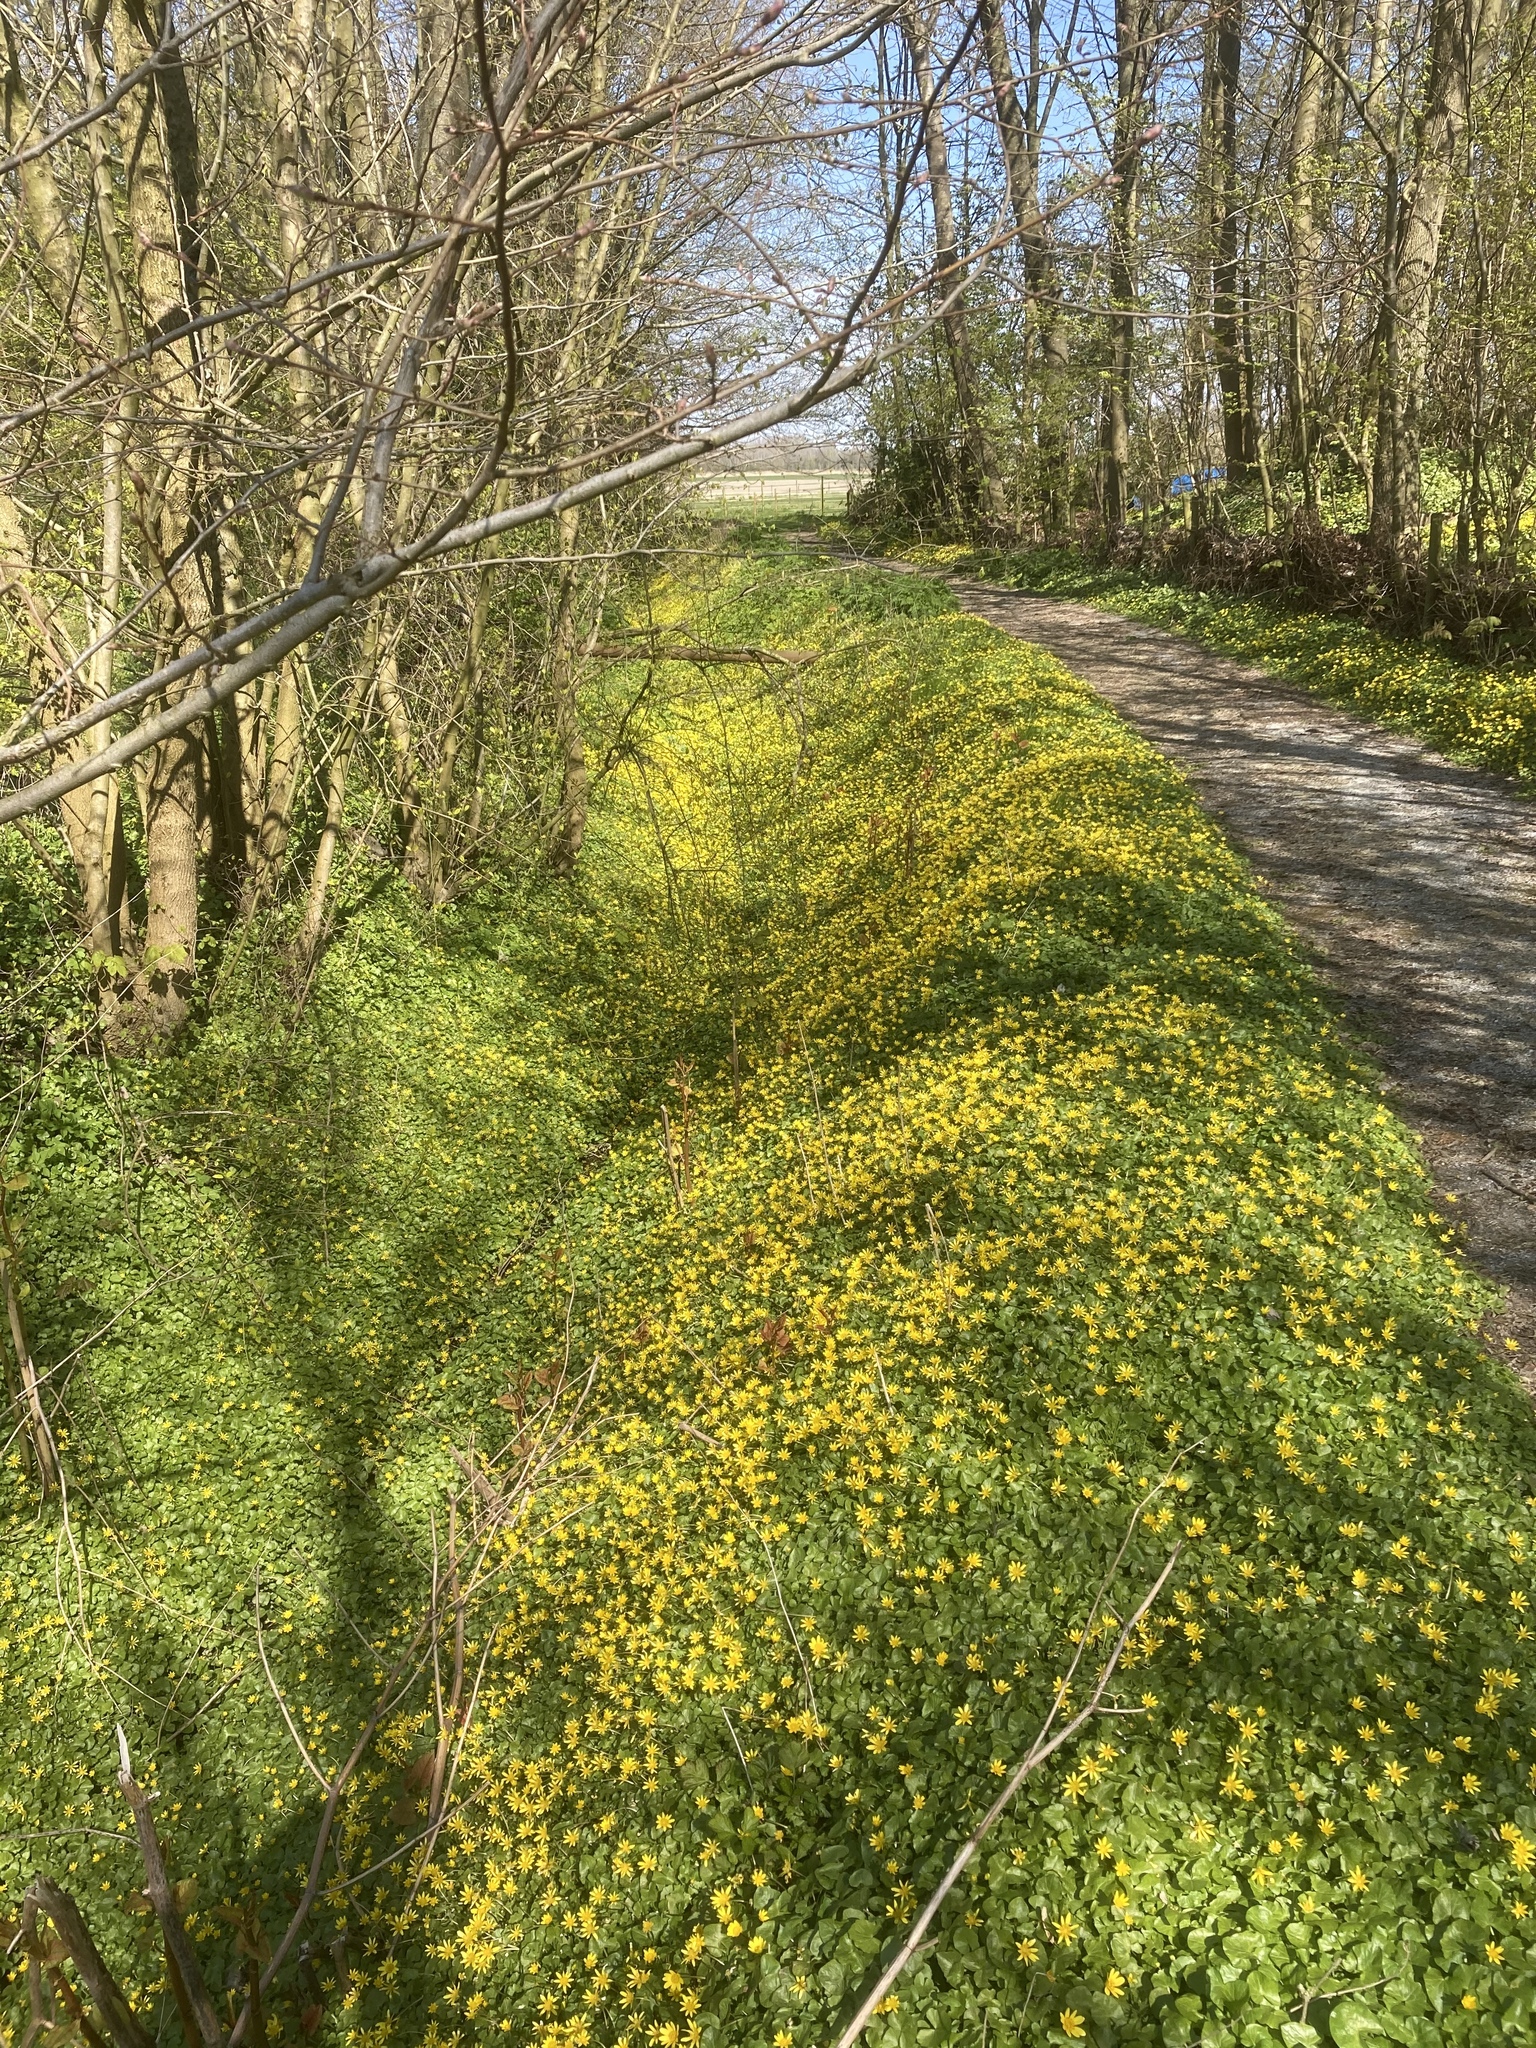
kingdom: Plantae
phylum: Tracheophyta
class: Magnoliopsida
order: Ranunculales
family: Ranunculaceae
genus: Ficaria
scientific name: Ficaria verna
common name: Lesser celandine
